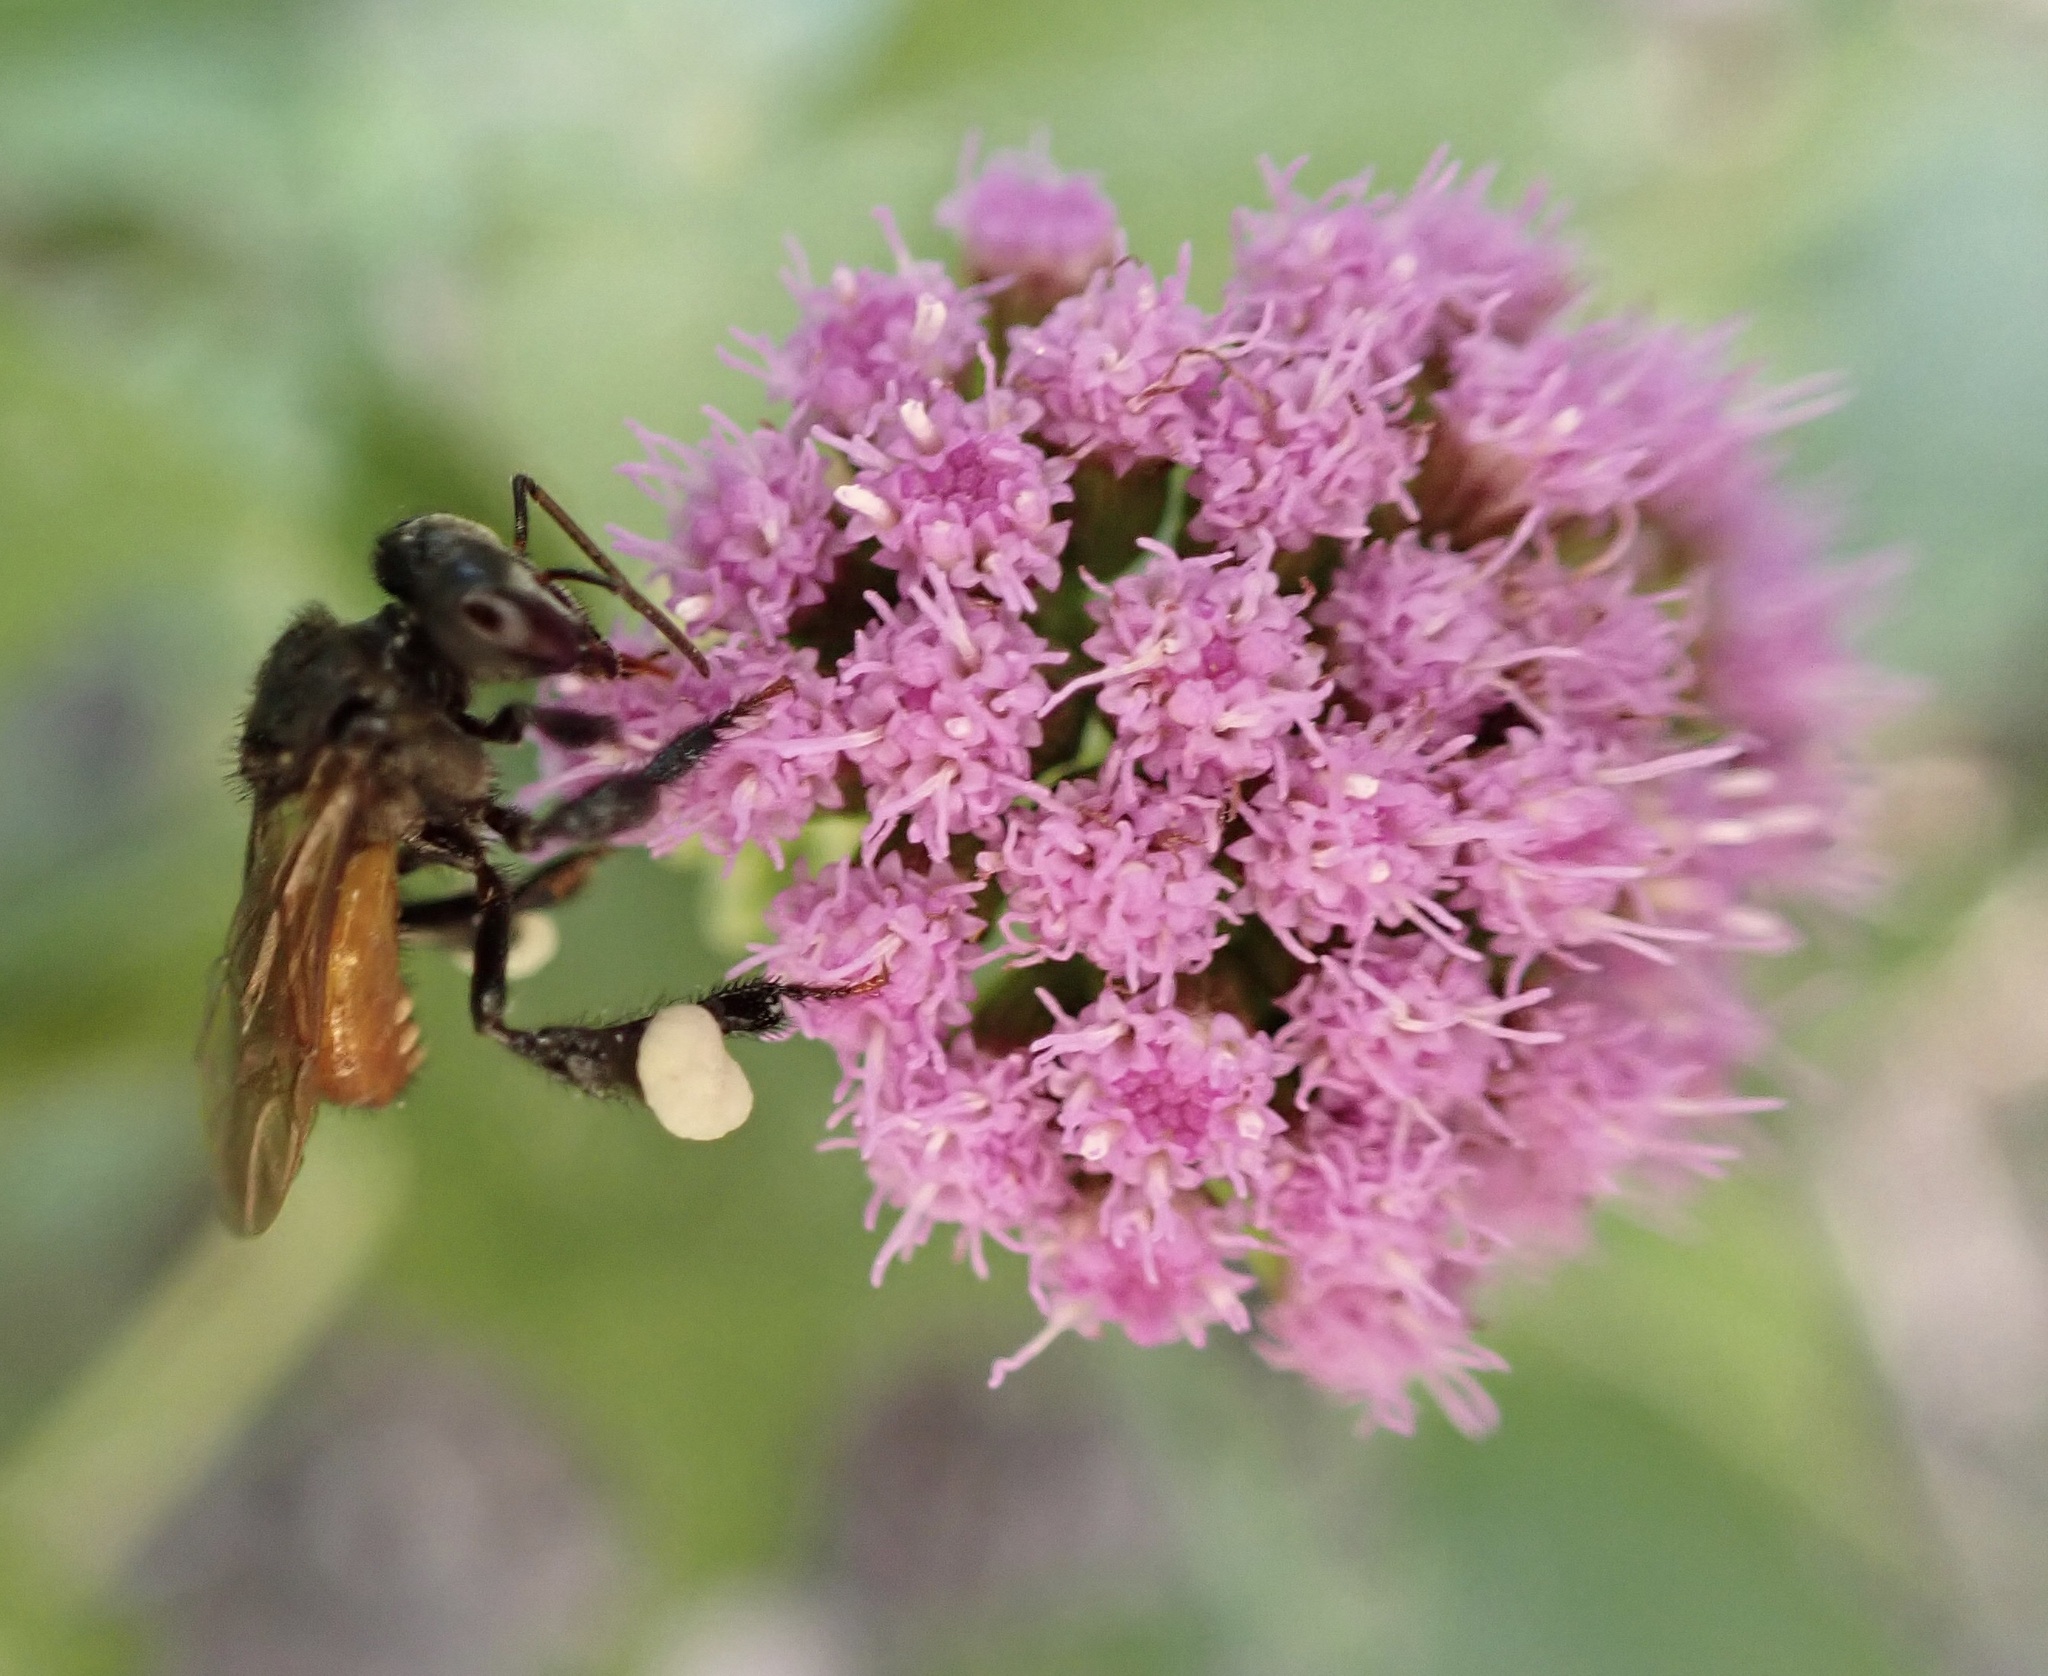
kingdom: Animalia
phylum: Arthropoda
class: Insecta
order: Hymenoptera
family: Apidae
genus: Trigona
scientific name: Trigona fulviventris
